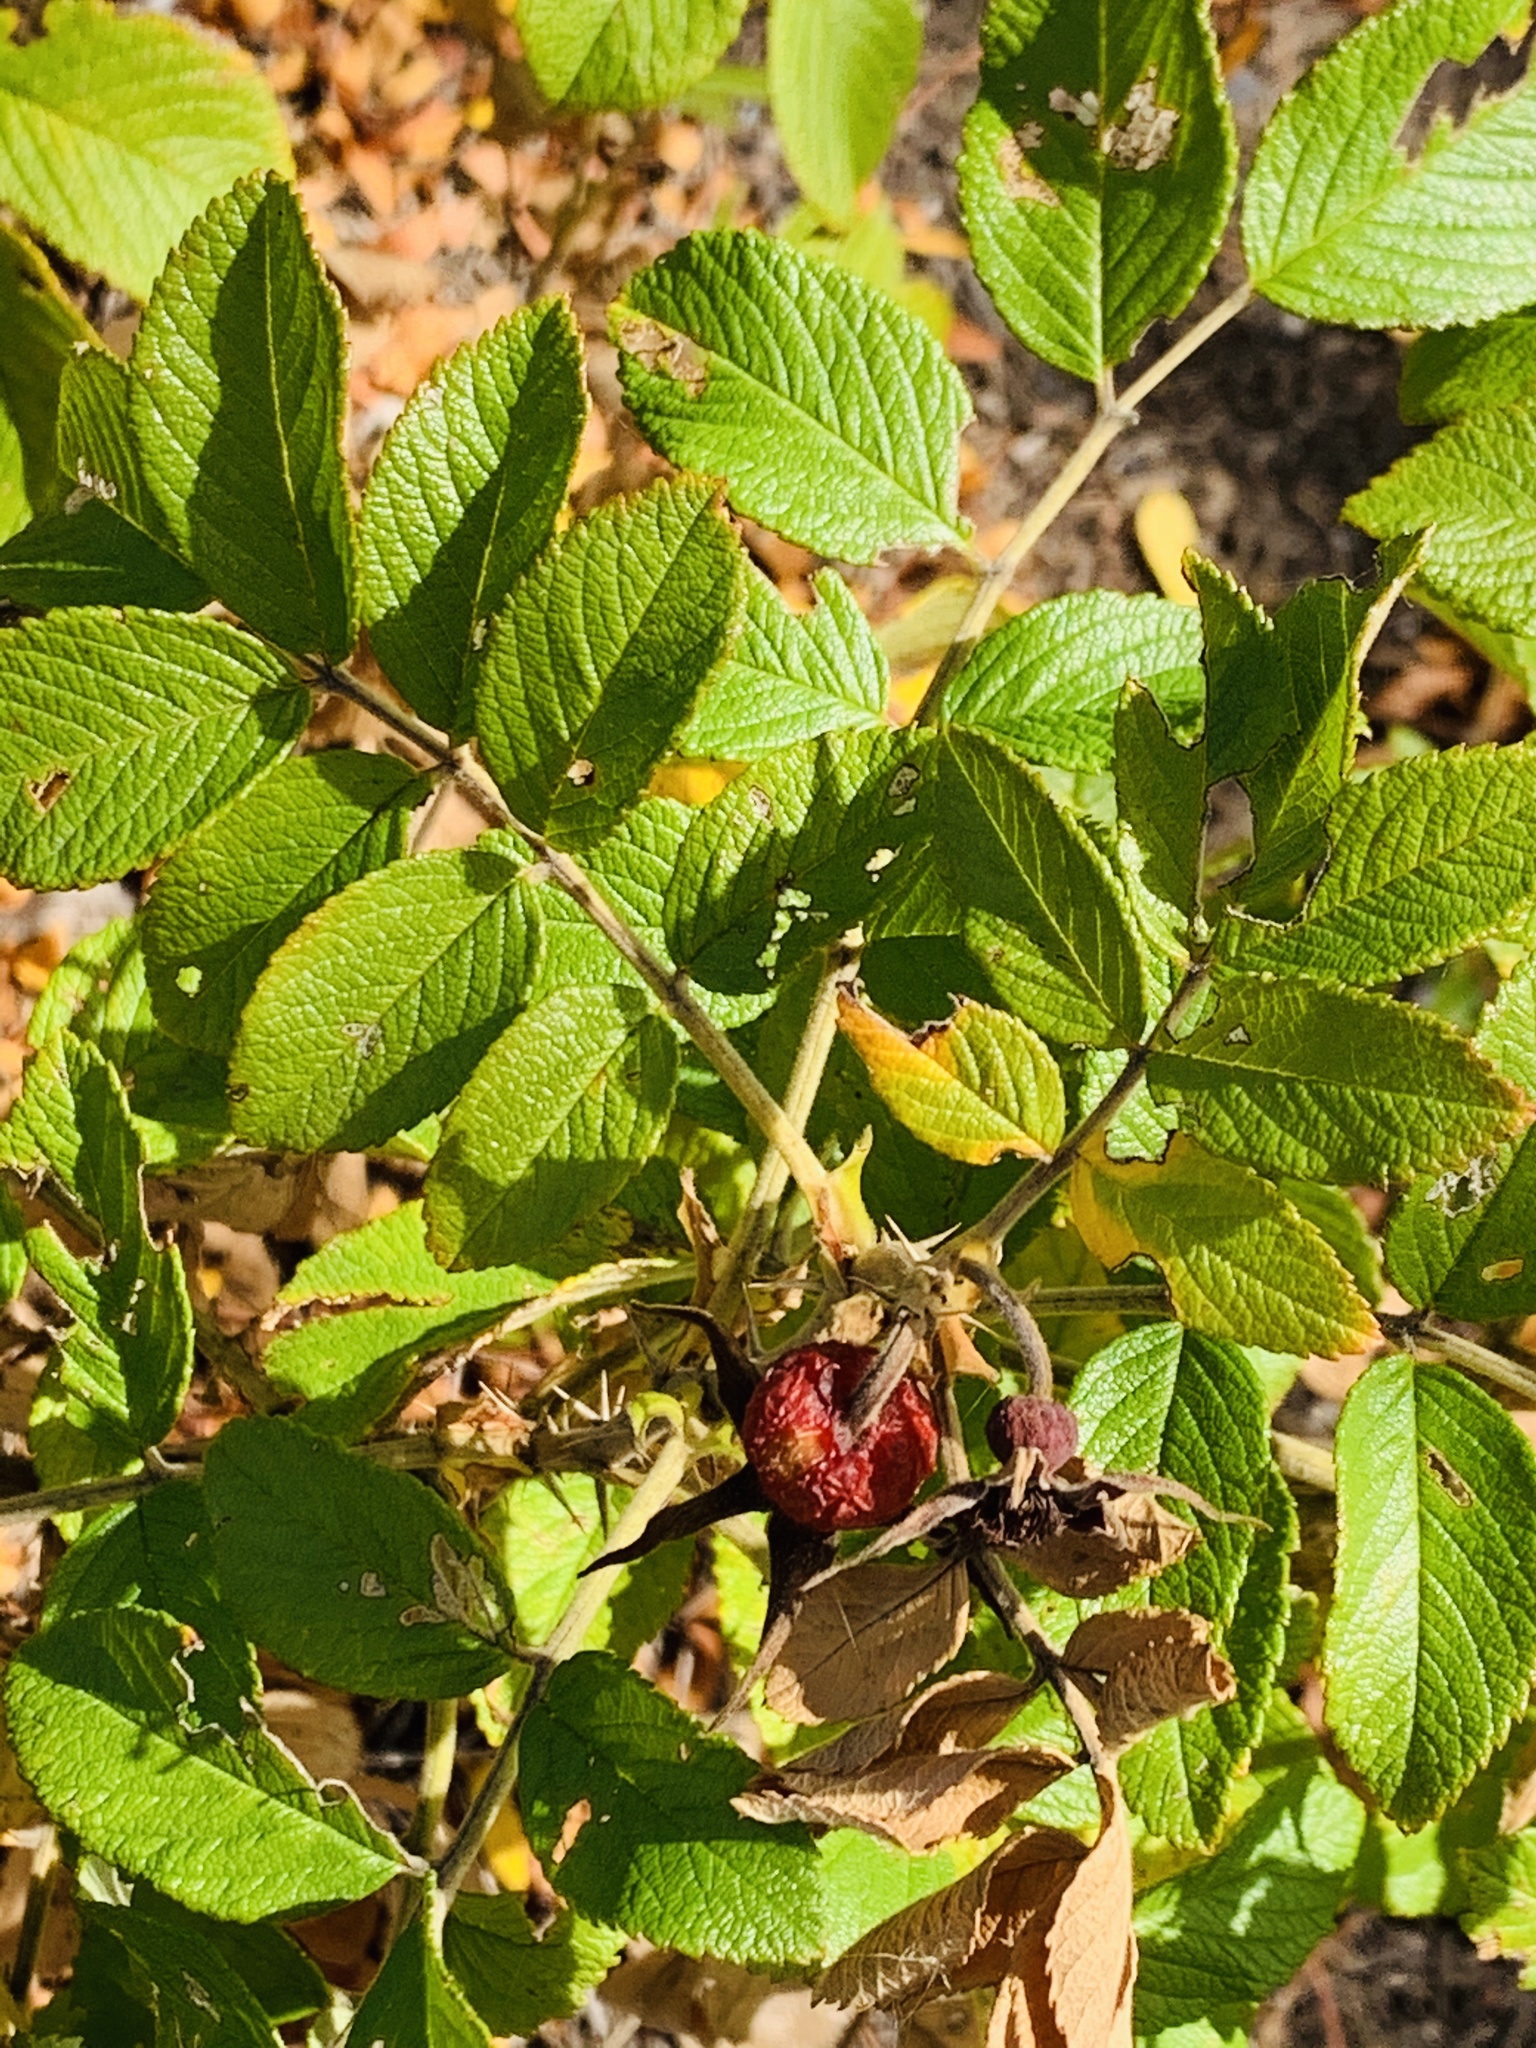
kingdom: Plantae
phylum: Tracheophyta
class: Magnoliopsida
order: Rosales
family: Rosaceae
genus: Rosa
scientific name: Rosa rugosa
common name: Japanese rose
